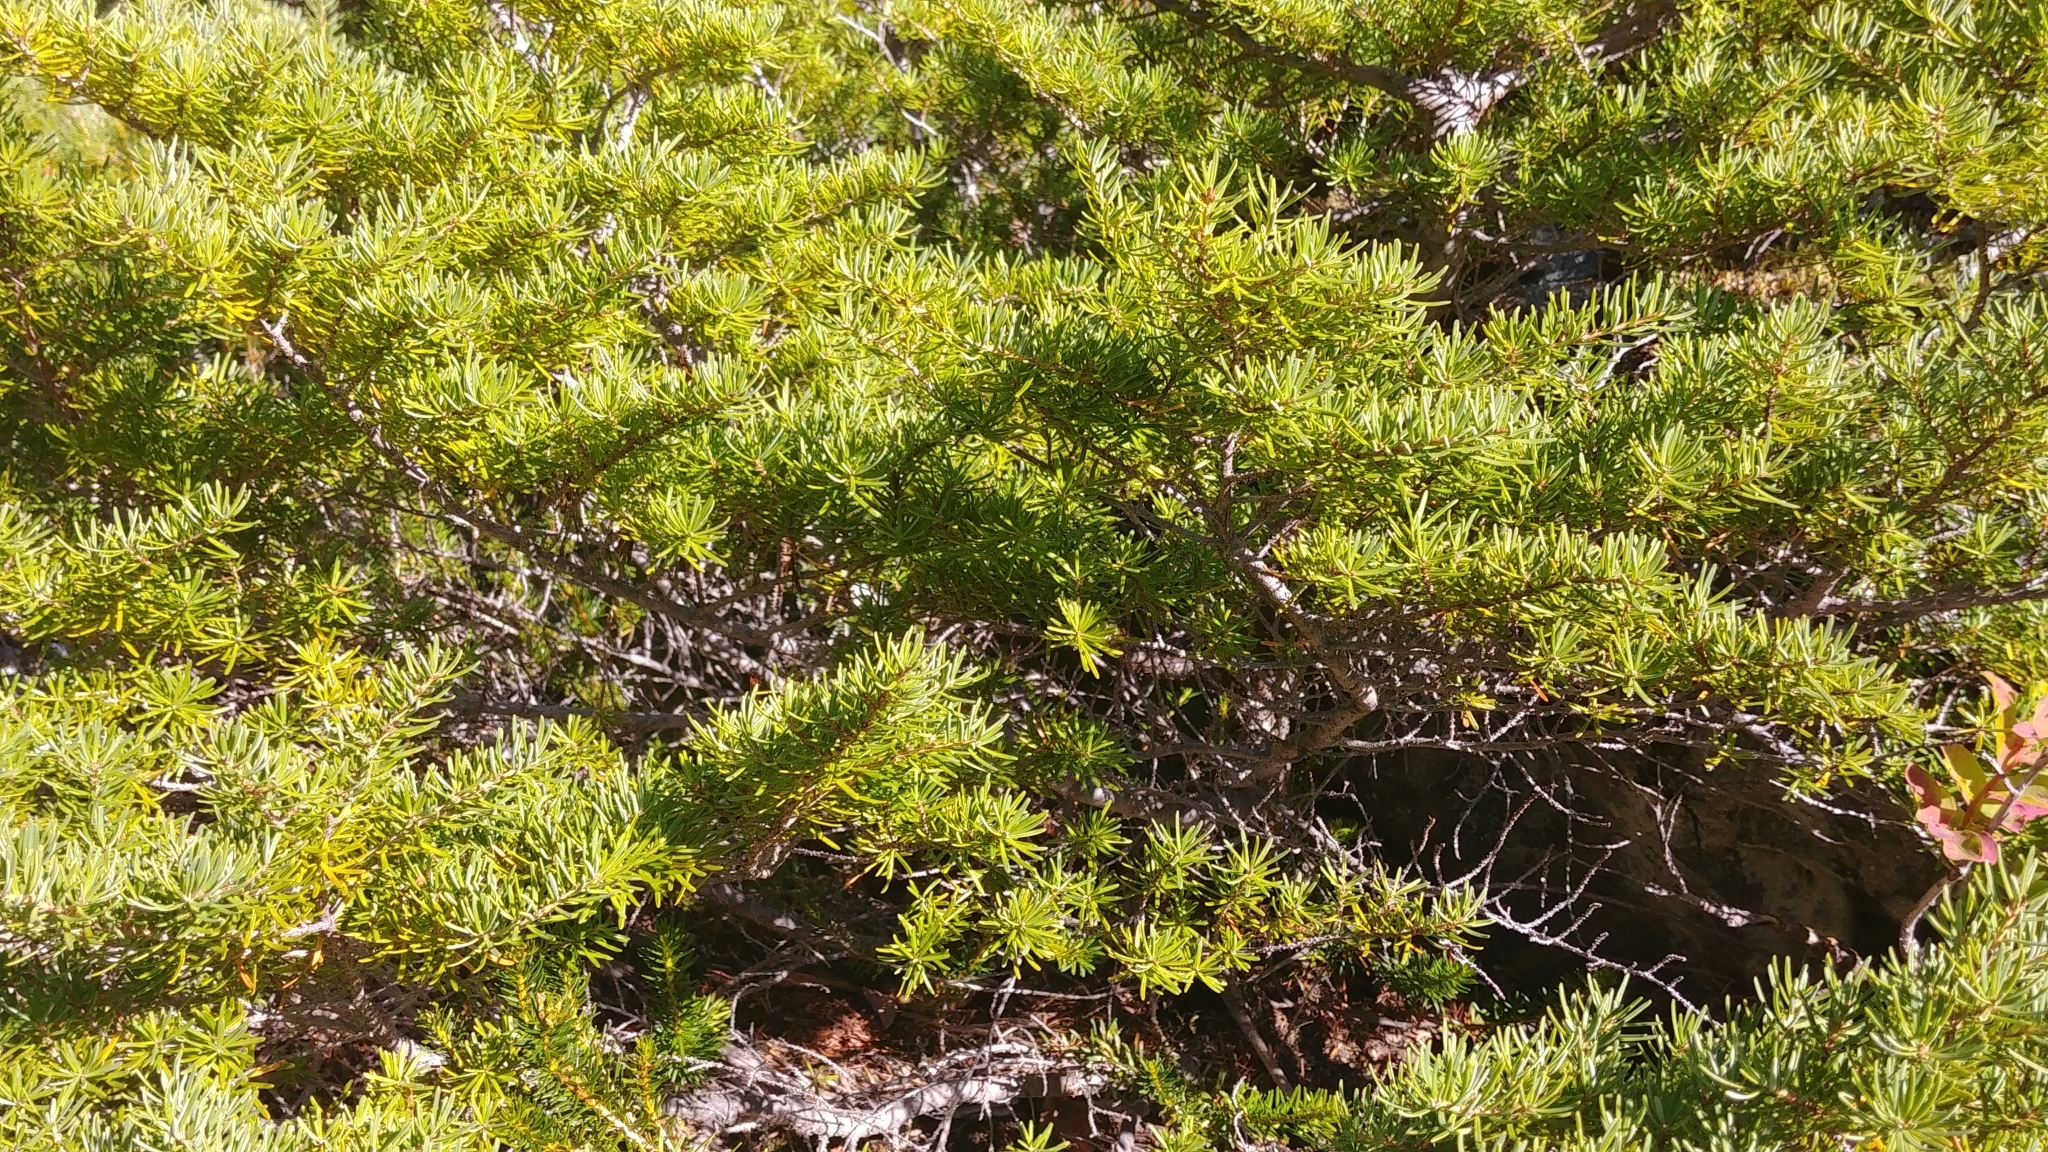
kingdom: Plantae
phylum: Tracheophyta
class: Pinopsida
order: Pinales
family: Pinaceae
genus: Tsuga
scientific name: Tsuga mertensiana
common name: Mountain hemlock
